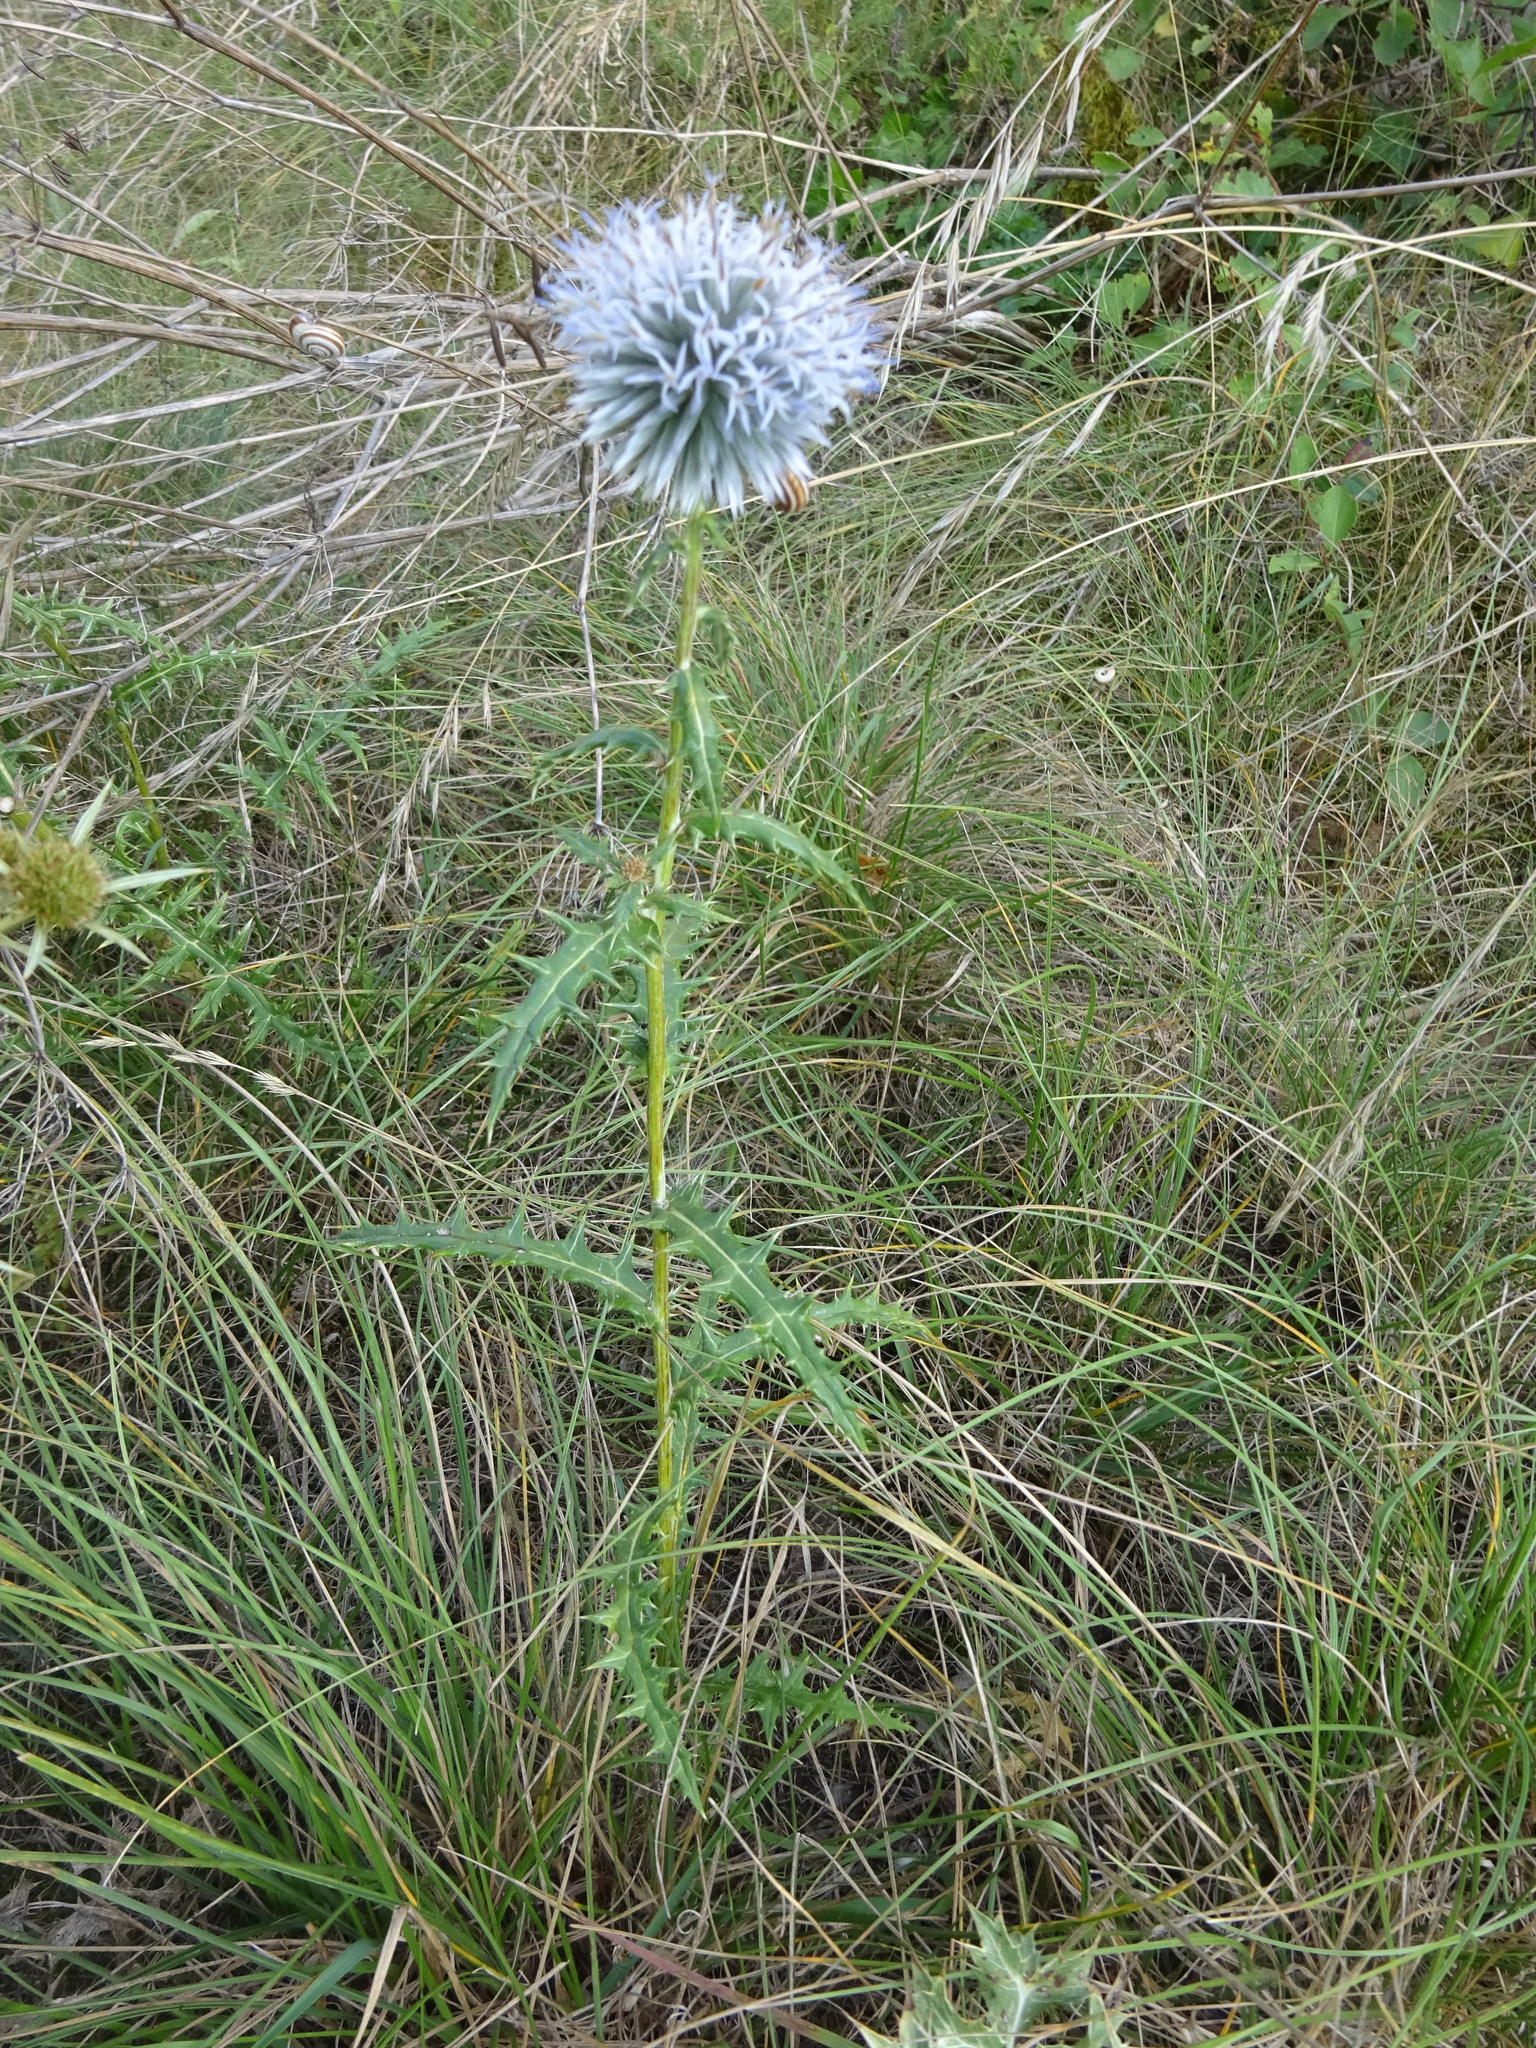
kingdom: Plantae
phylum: Tracheophyta
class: Magnoliopsida
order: Asterales
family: Asteraceae
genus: Echinops
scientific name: Echinops sphaerocephalus
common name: Glandular globe-thistle
